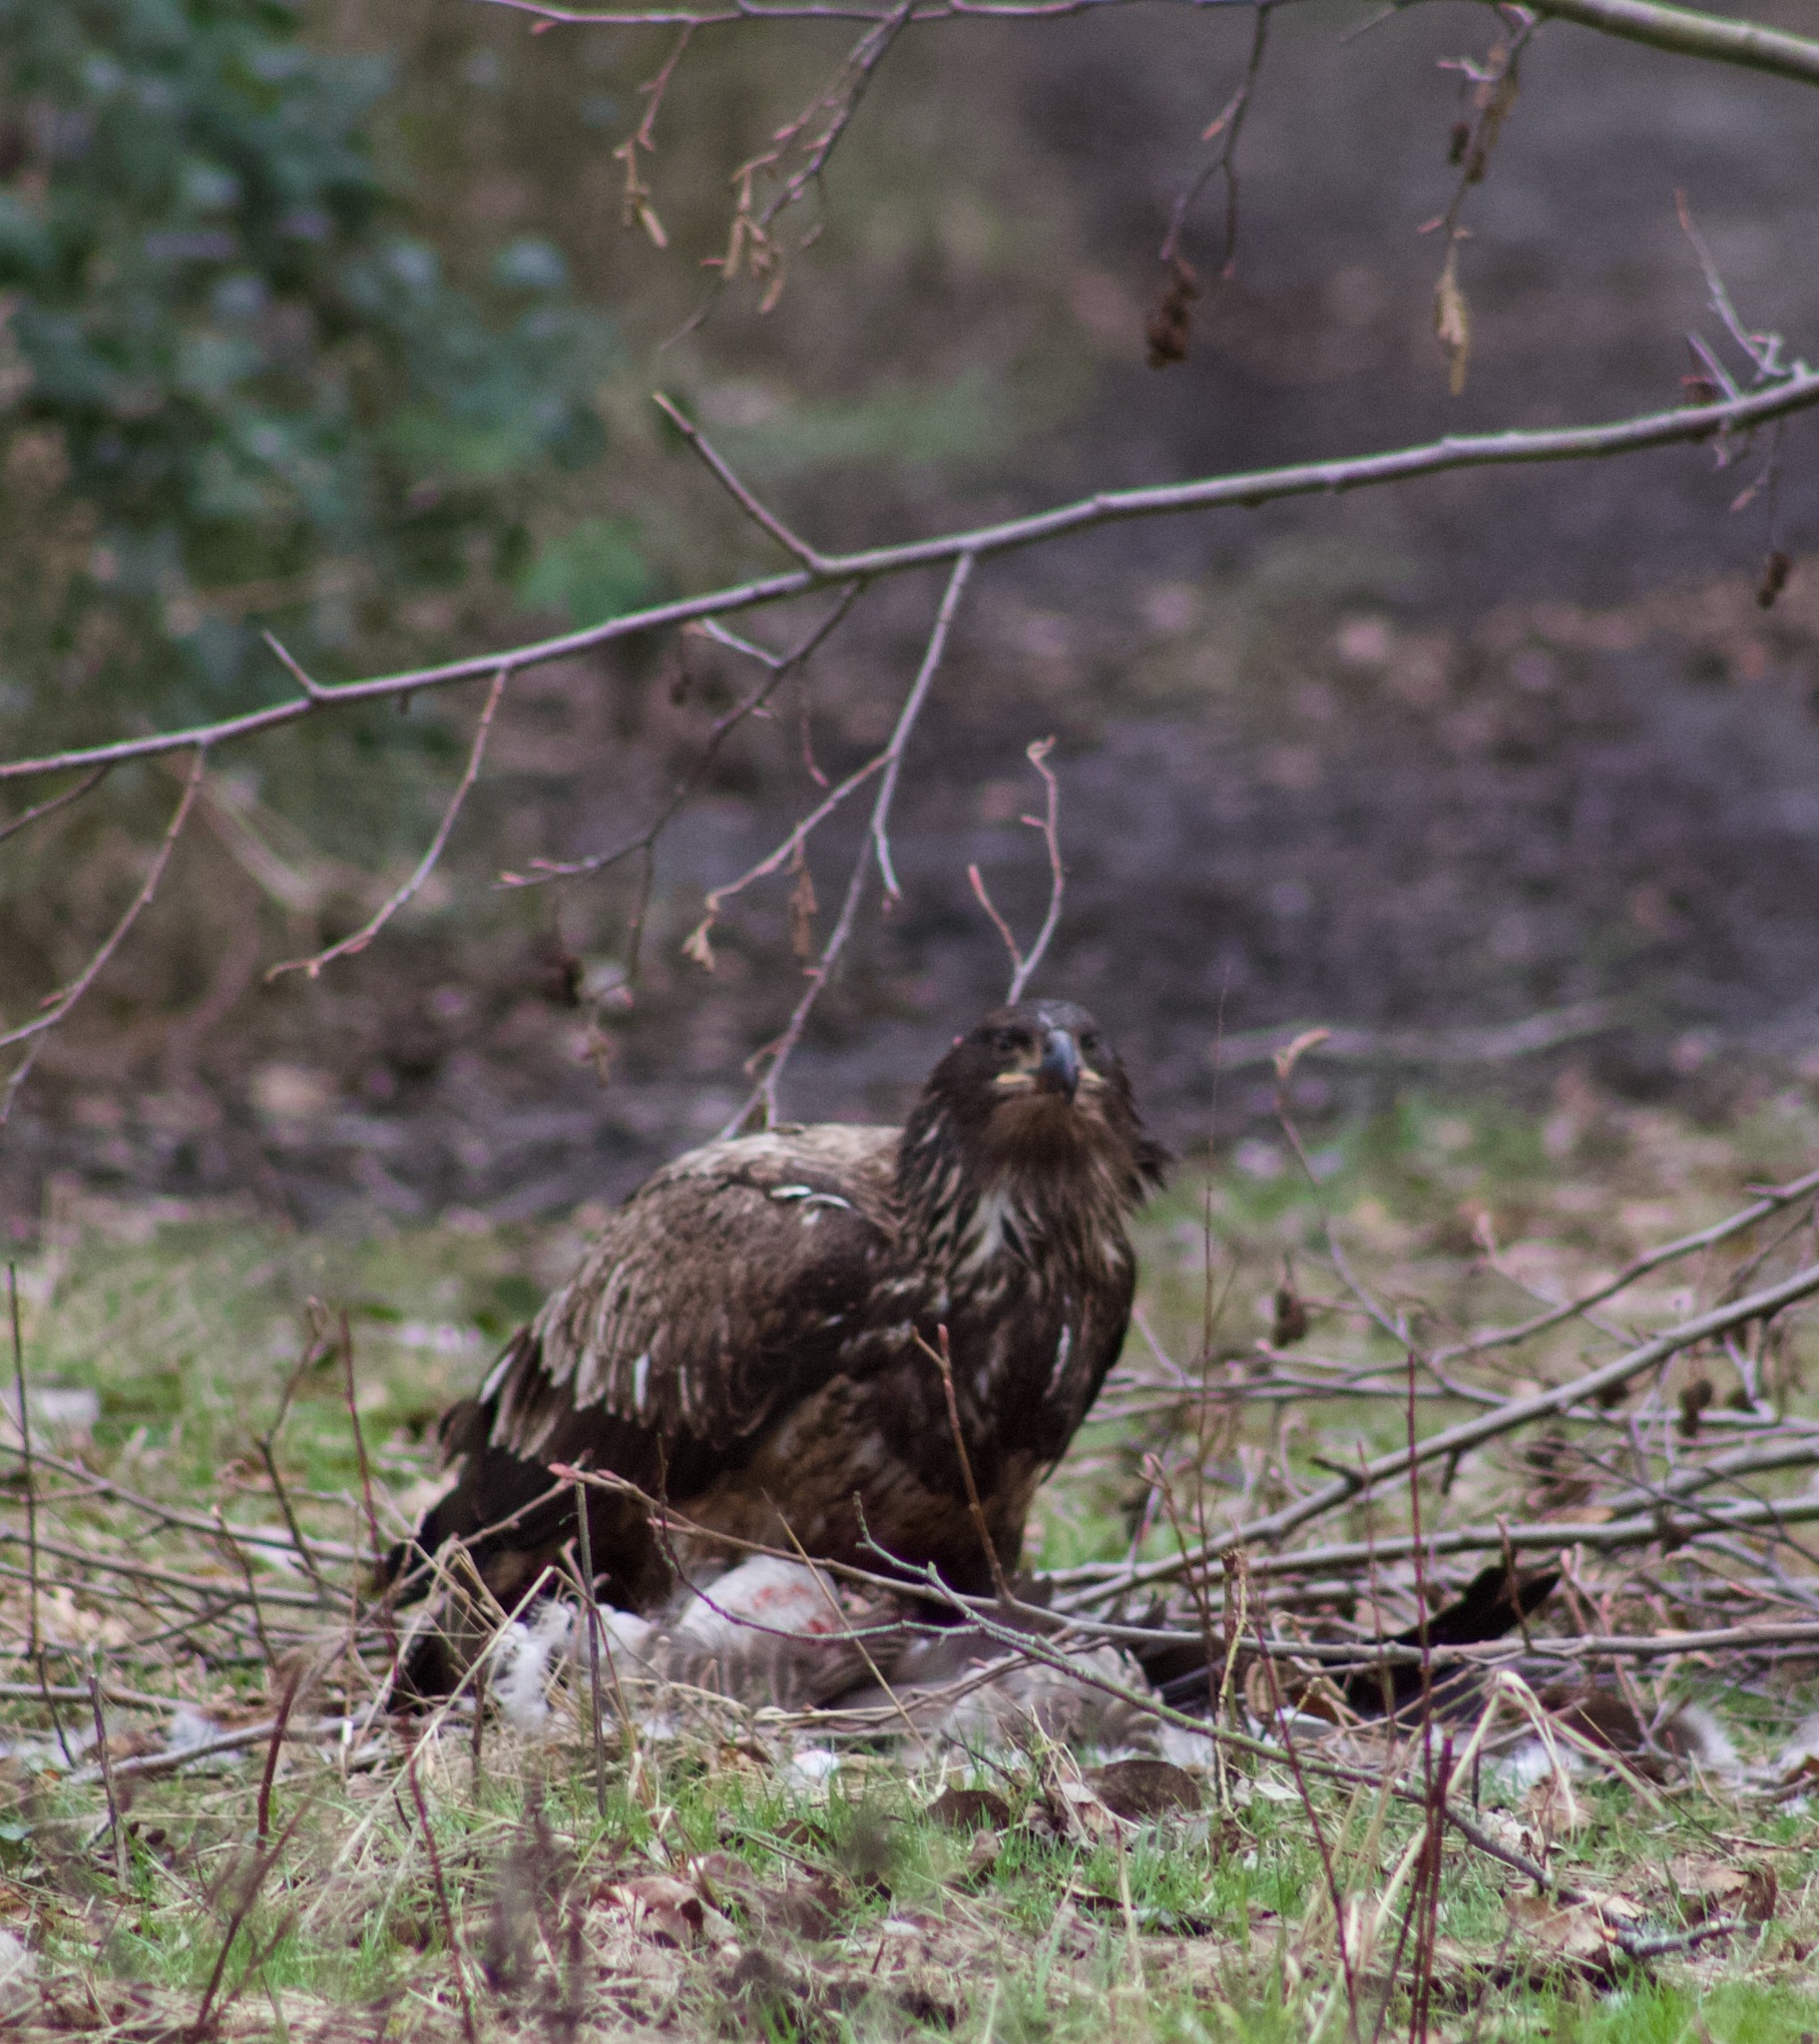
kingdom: Animalia
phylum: Chordata
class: Aves
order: Accipitriformes
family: Accipitridae
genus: Haliaeetus
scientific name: Haliaeetus leucocephalus
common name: Bald eagle
